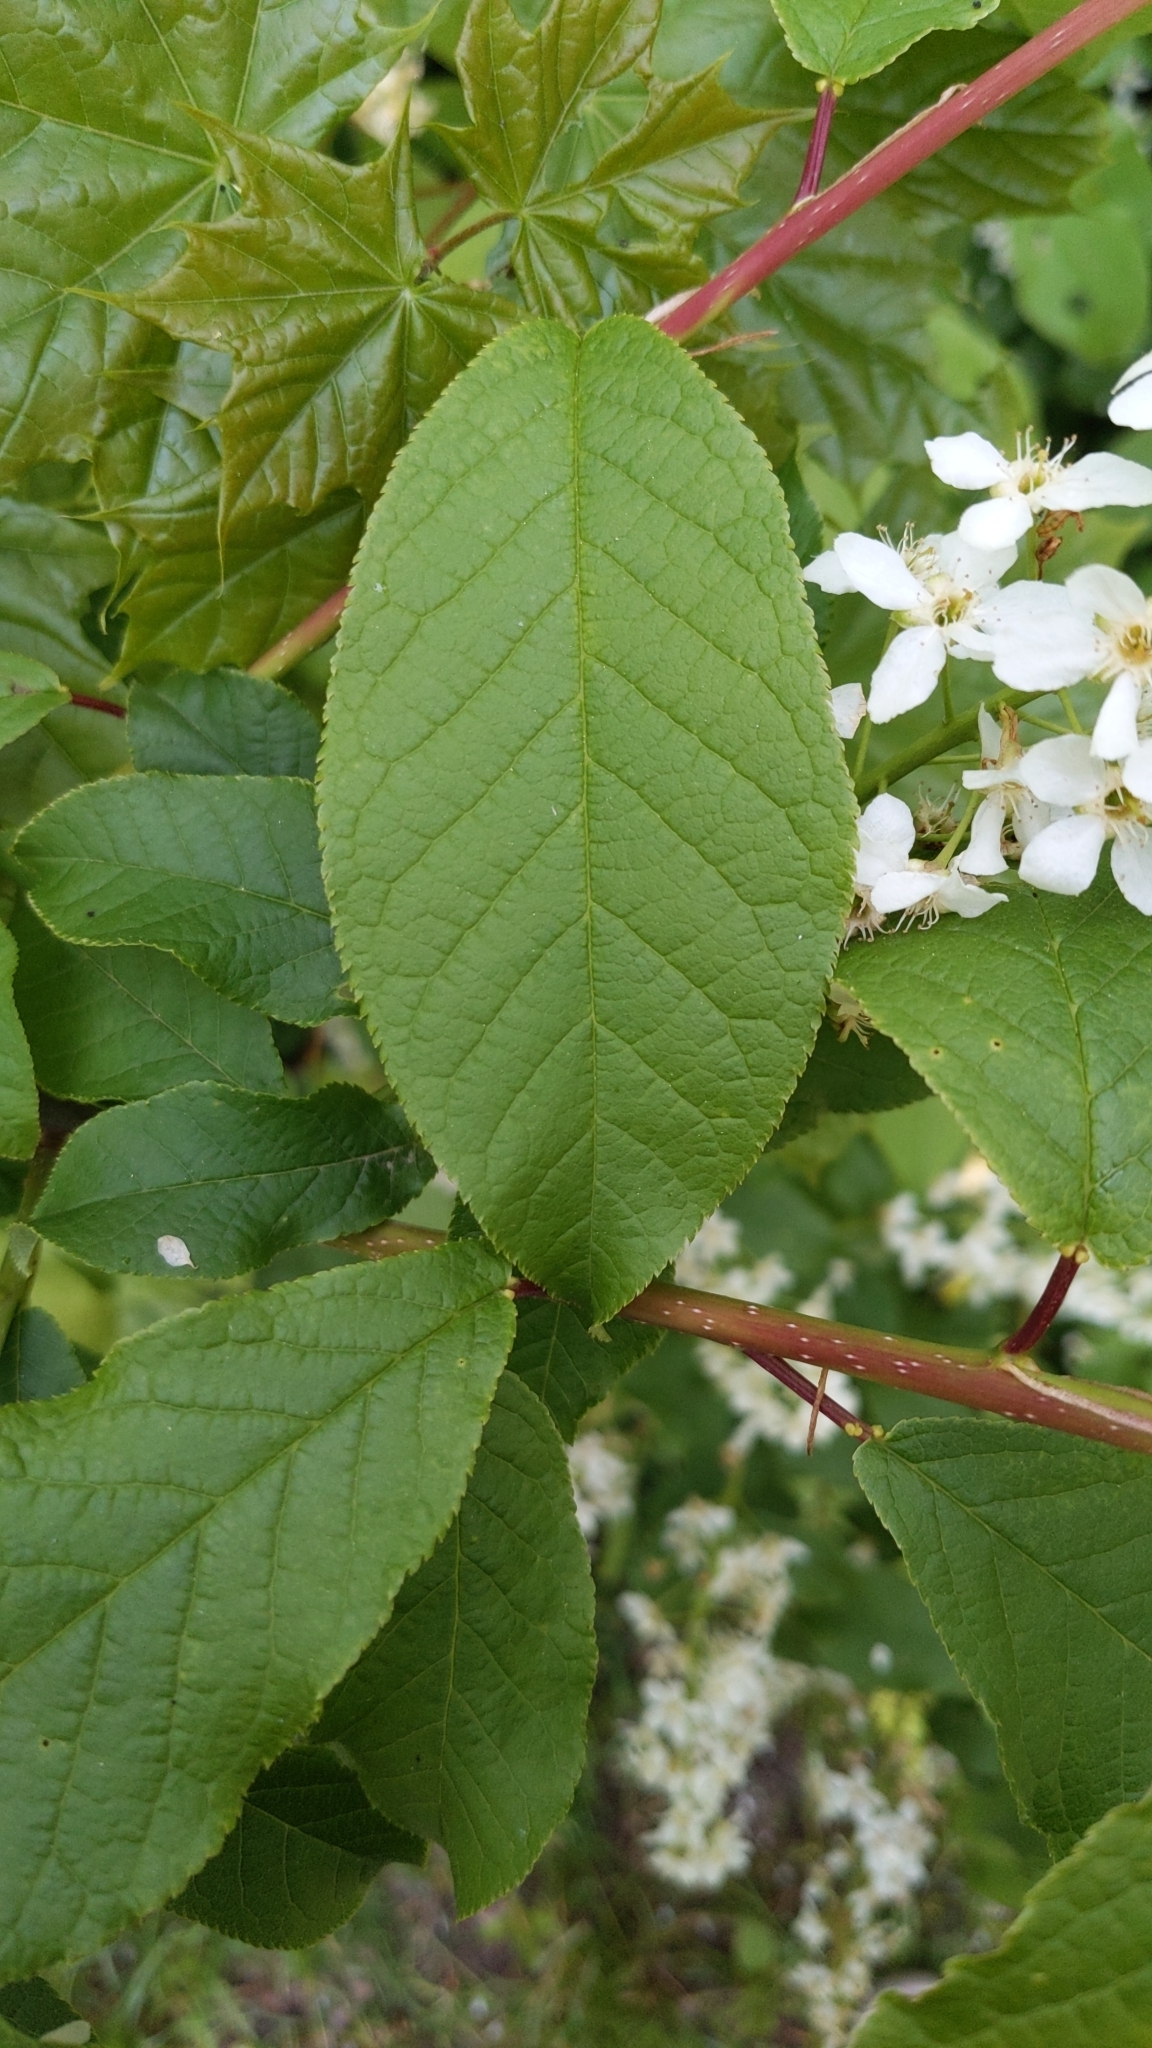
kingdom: Plantae
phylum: Tracheophyta
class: Magnoliopsida
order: Rosales
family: Rosaceae
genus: Prunus
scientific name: Prunus padus
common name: Bird cherry
